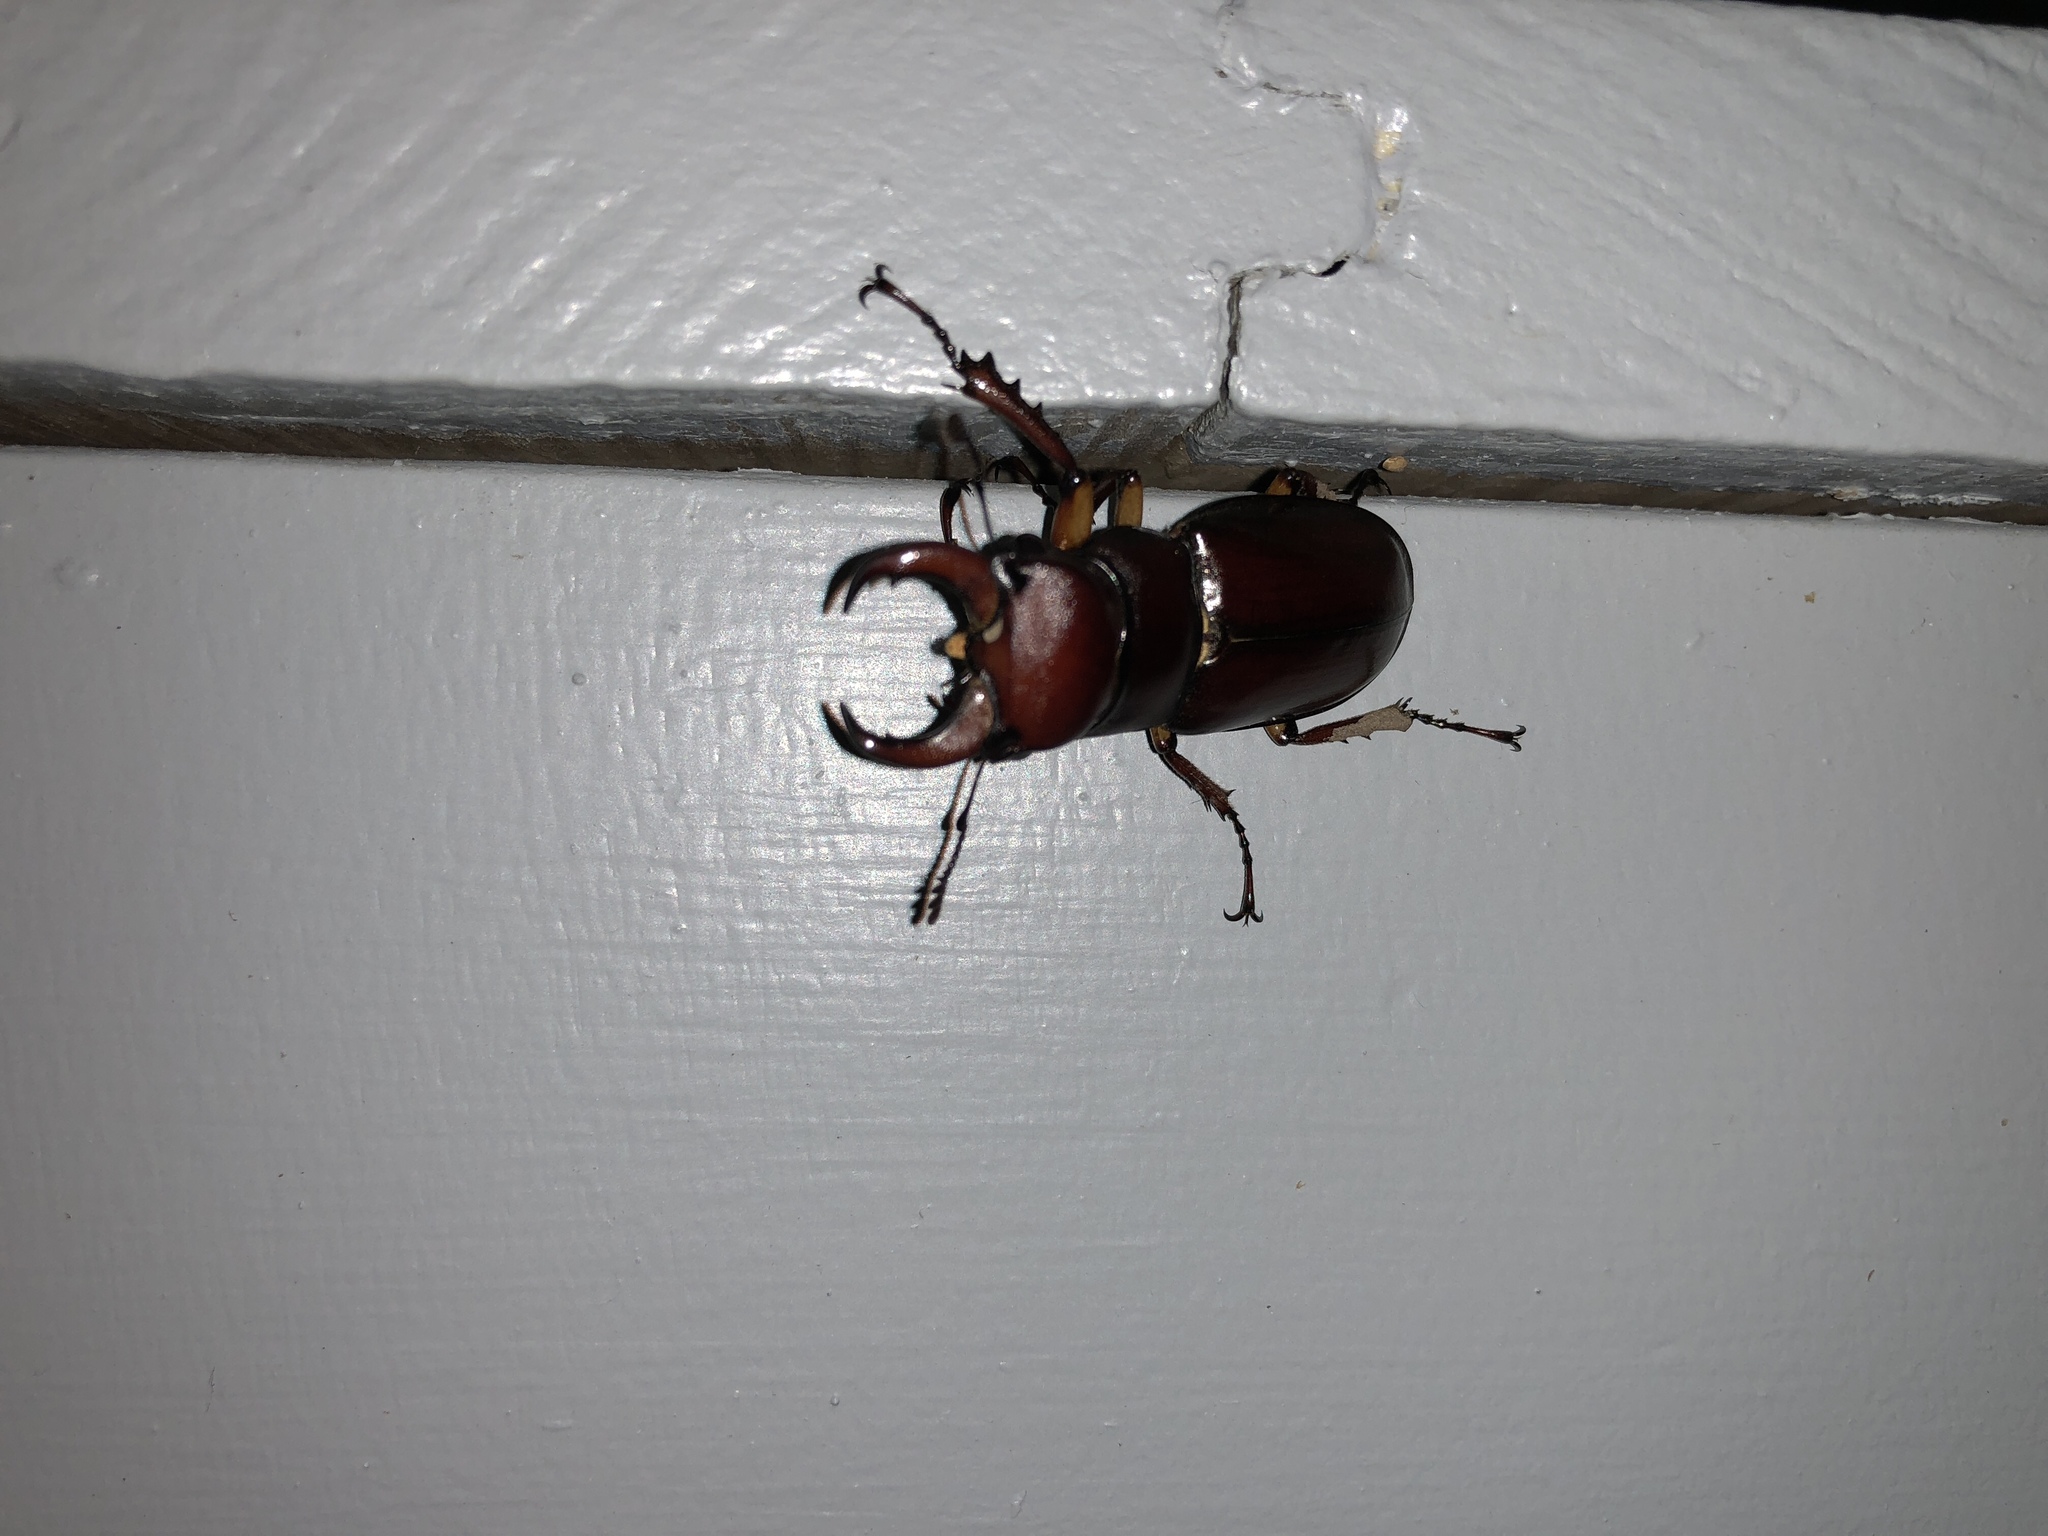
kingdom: Animalia
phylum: Arthropoda
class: Insecta
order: Coleoptera
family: Lucanidae
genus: Lucanus
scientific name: Lucanus capreolus
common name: Stag beetle
